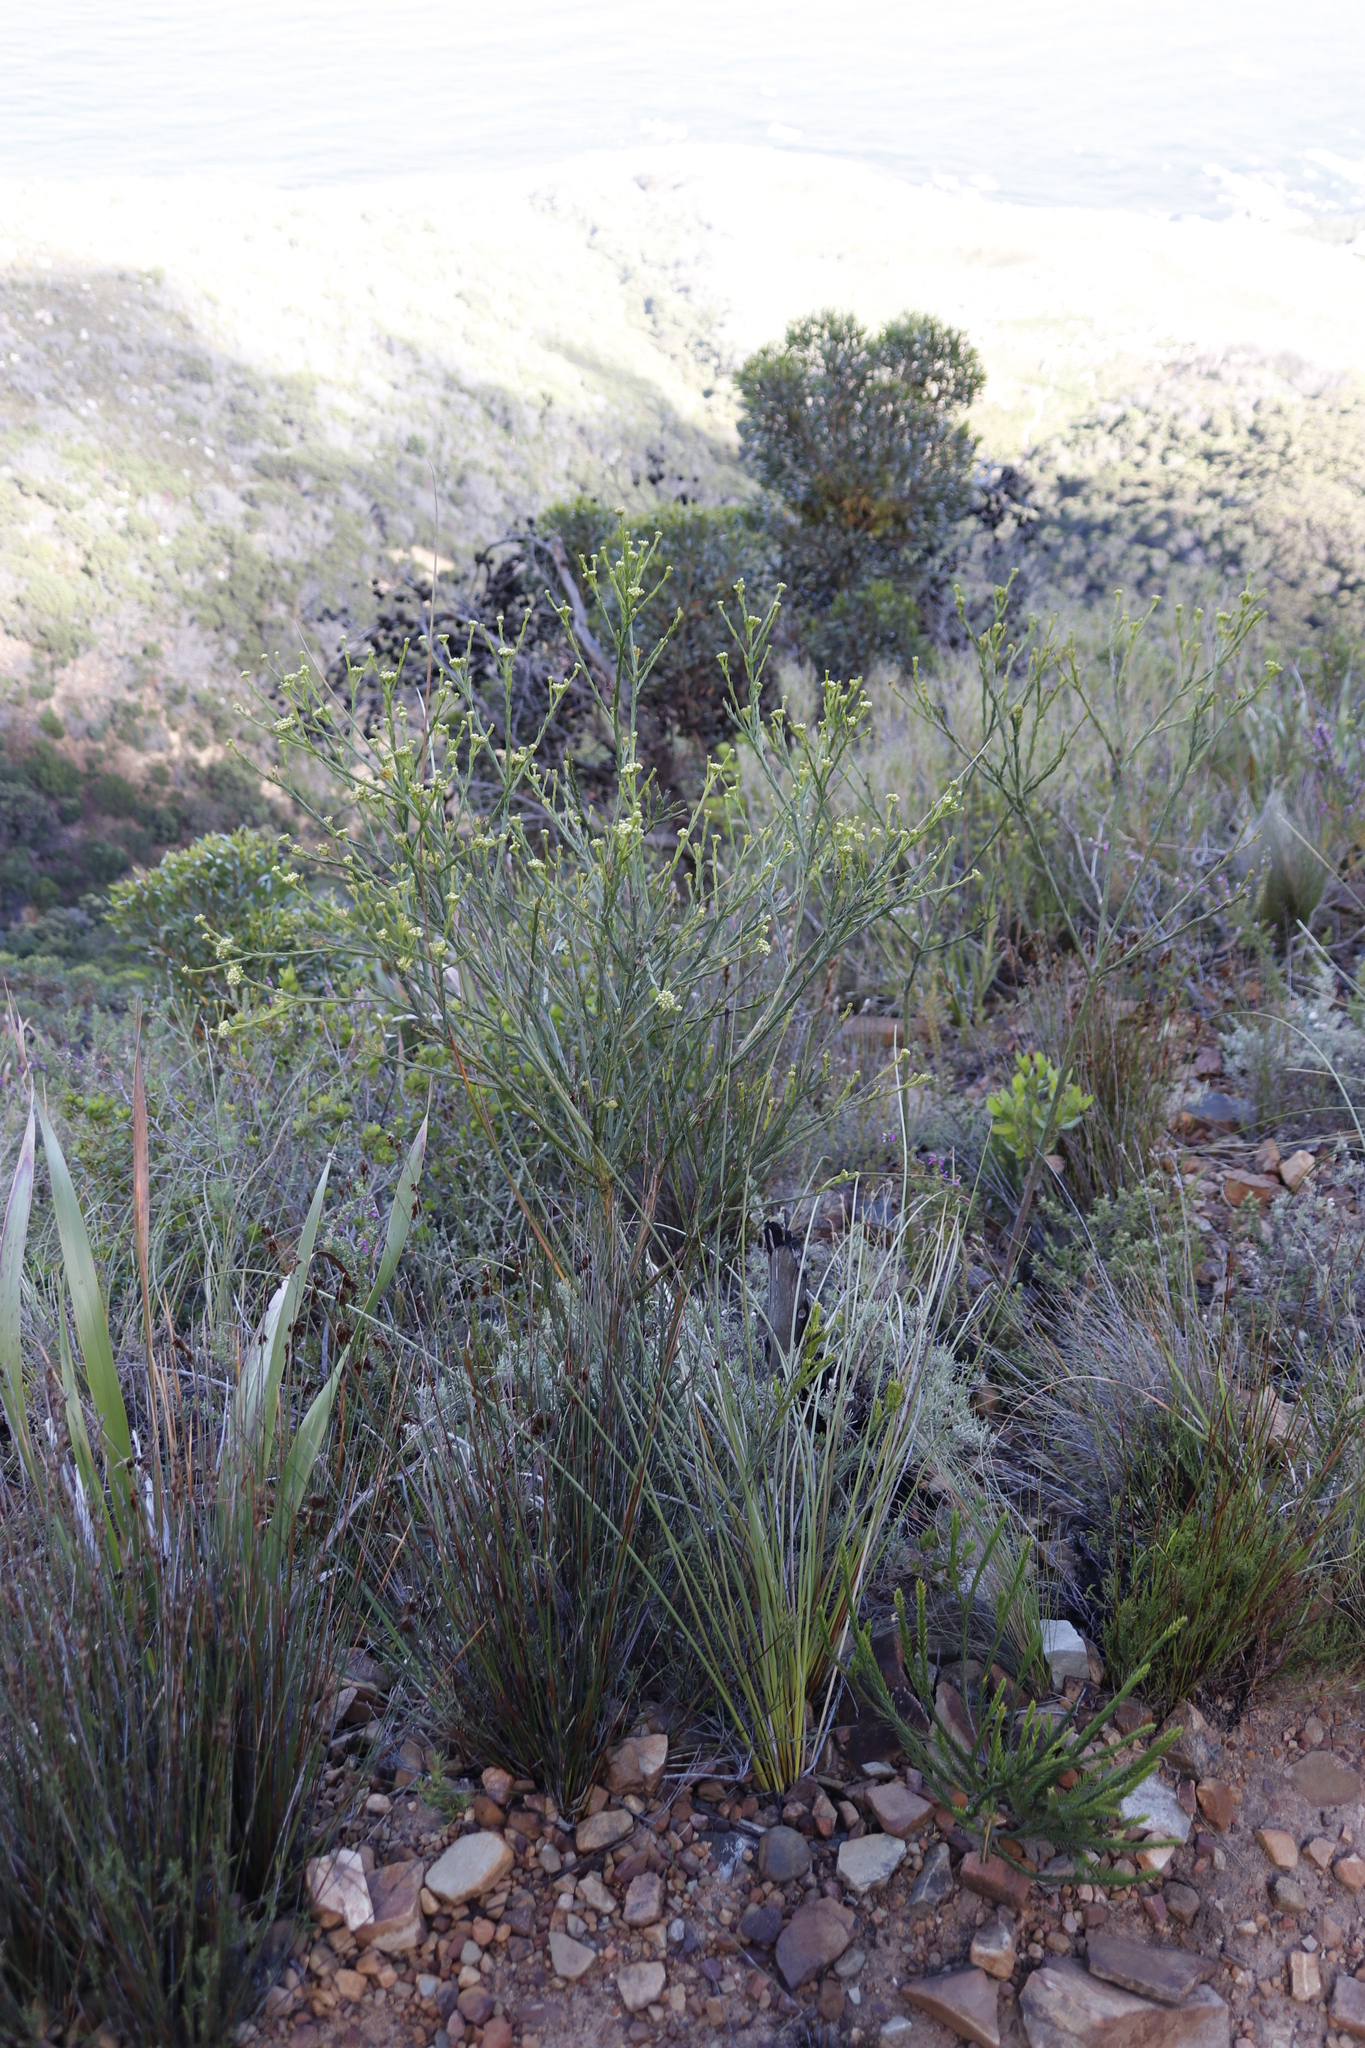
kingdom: Plantae
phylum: Tracheophyta
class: Magnoliopsida
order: Santalales
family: Thesiaceae
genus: Thesium
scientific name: Thesium strictum
